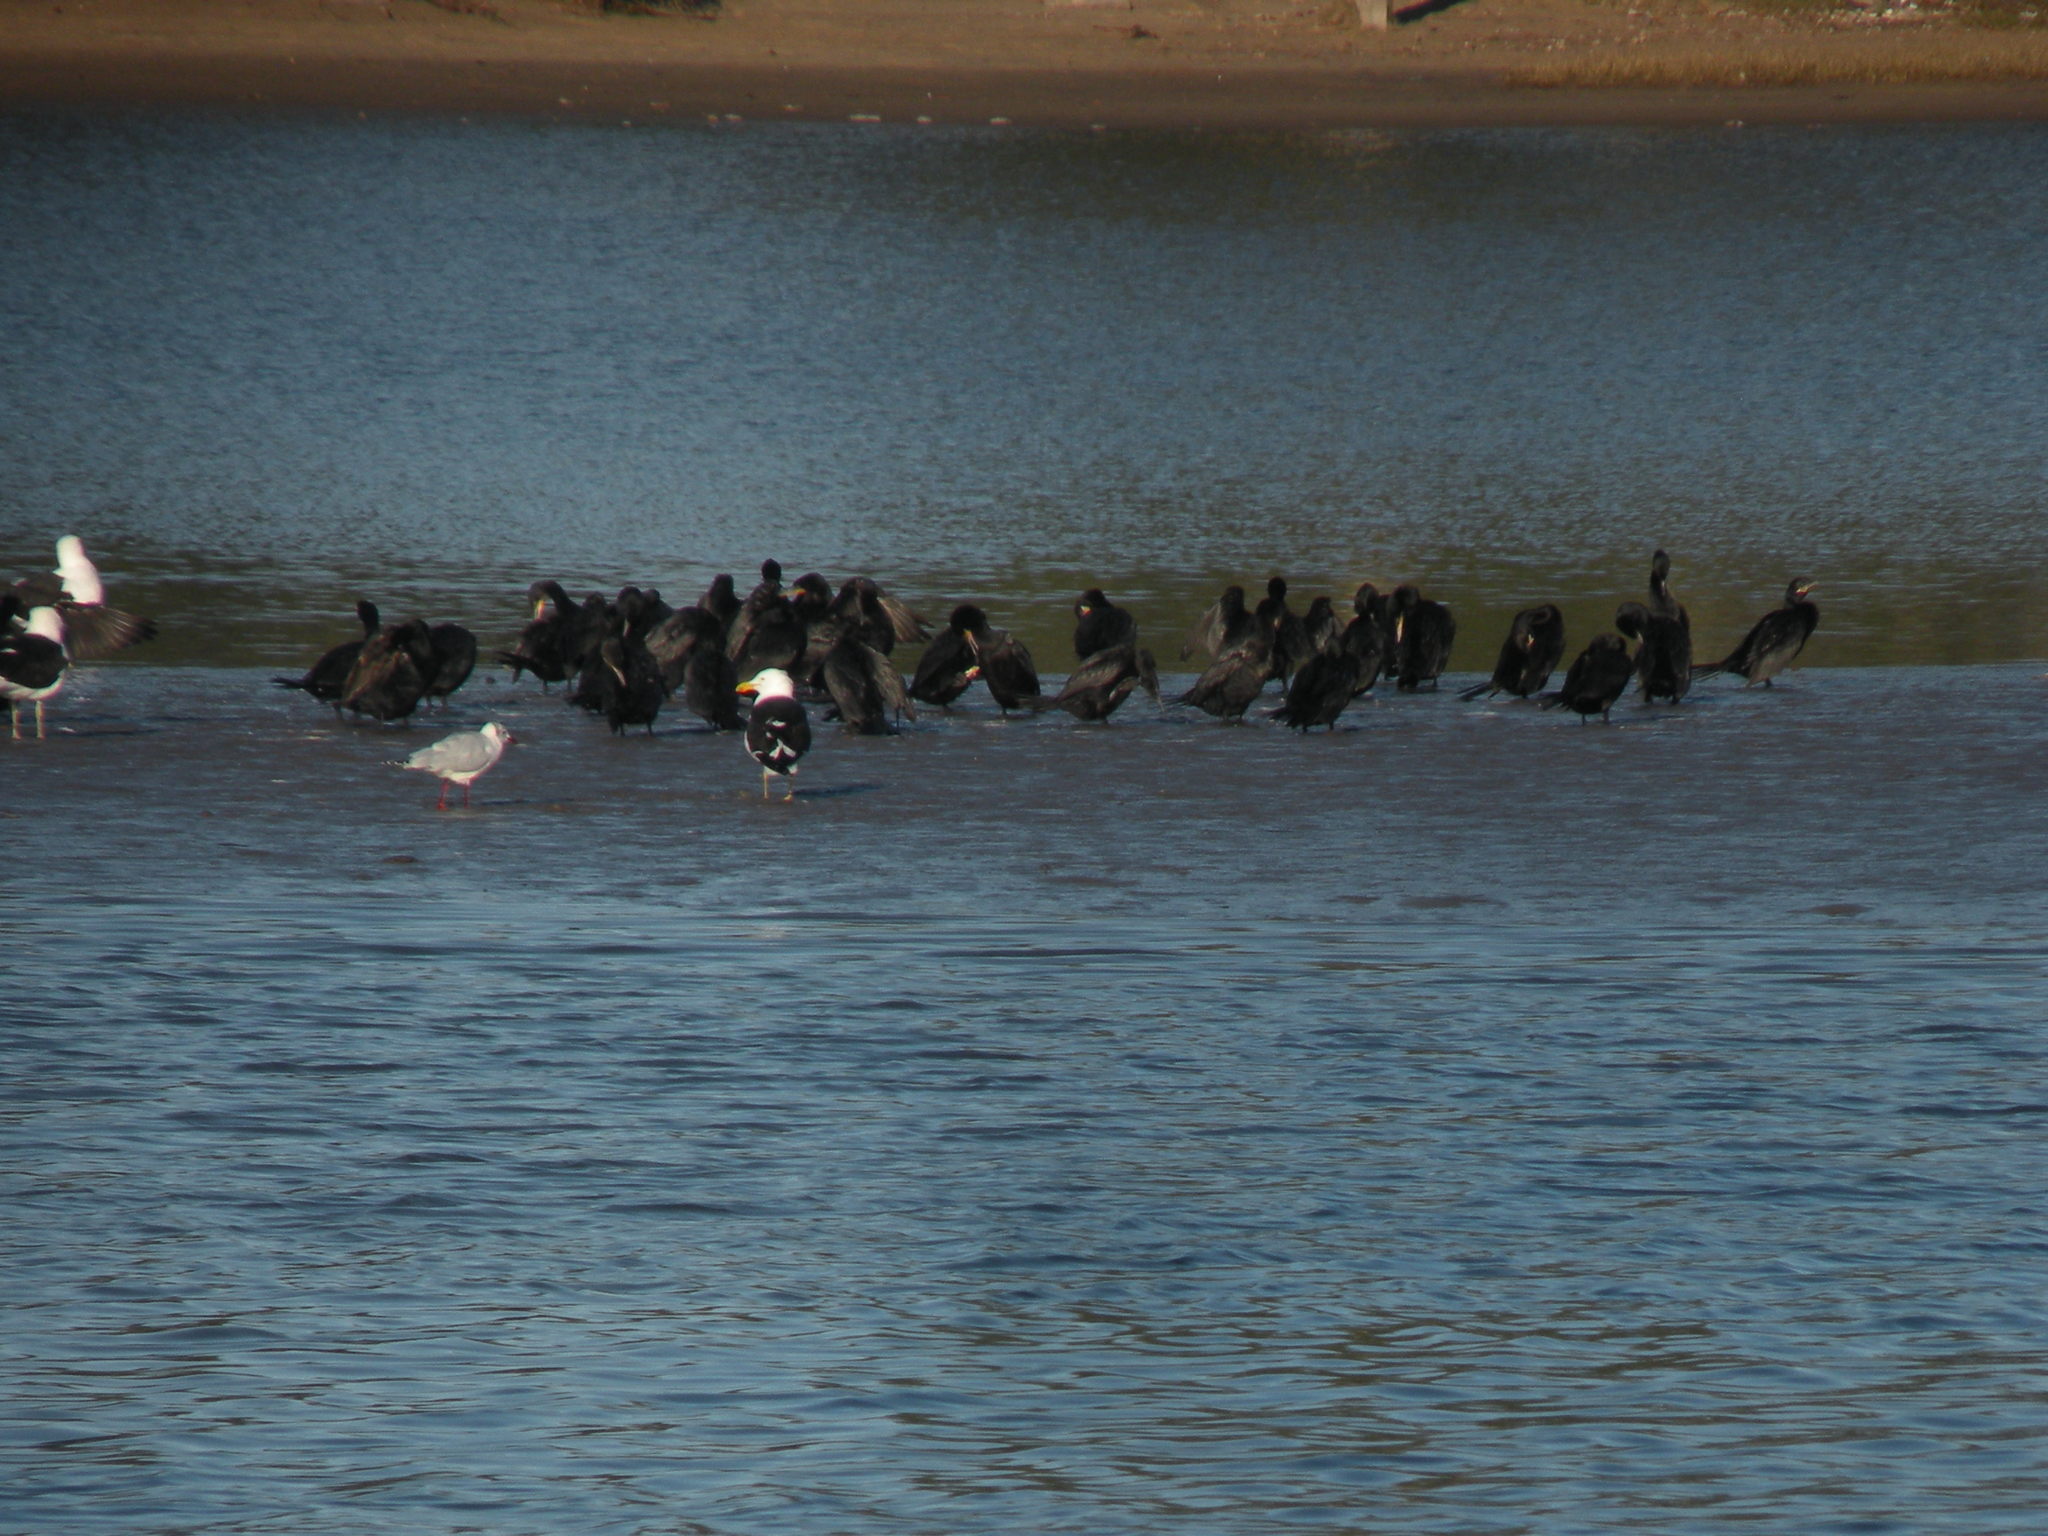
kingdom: Animalia
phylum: Chordata
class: Aves
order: Suliformes
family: Phalacrocoracidae
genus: Phalacrocorax
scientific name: Phalacrocorax brasilianus
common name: Neotropic cormorant
